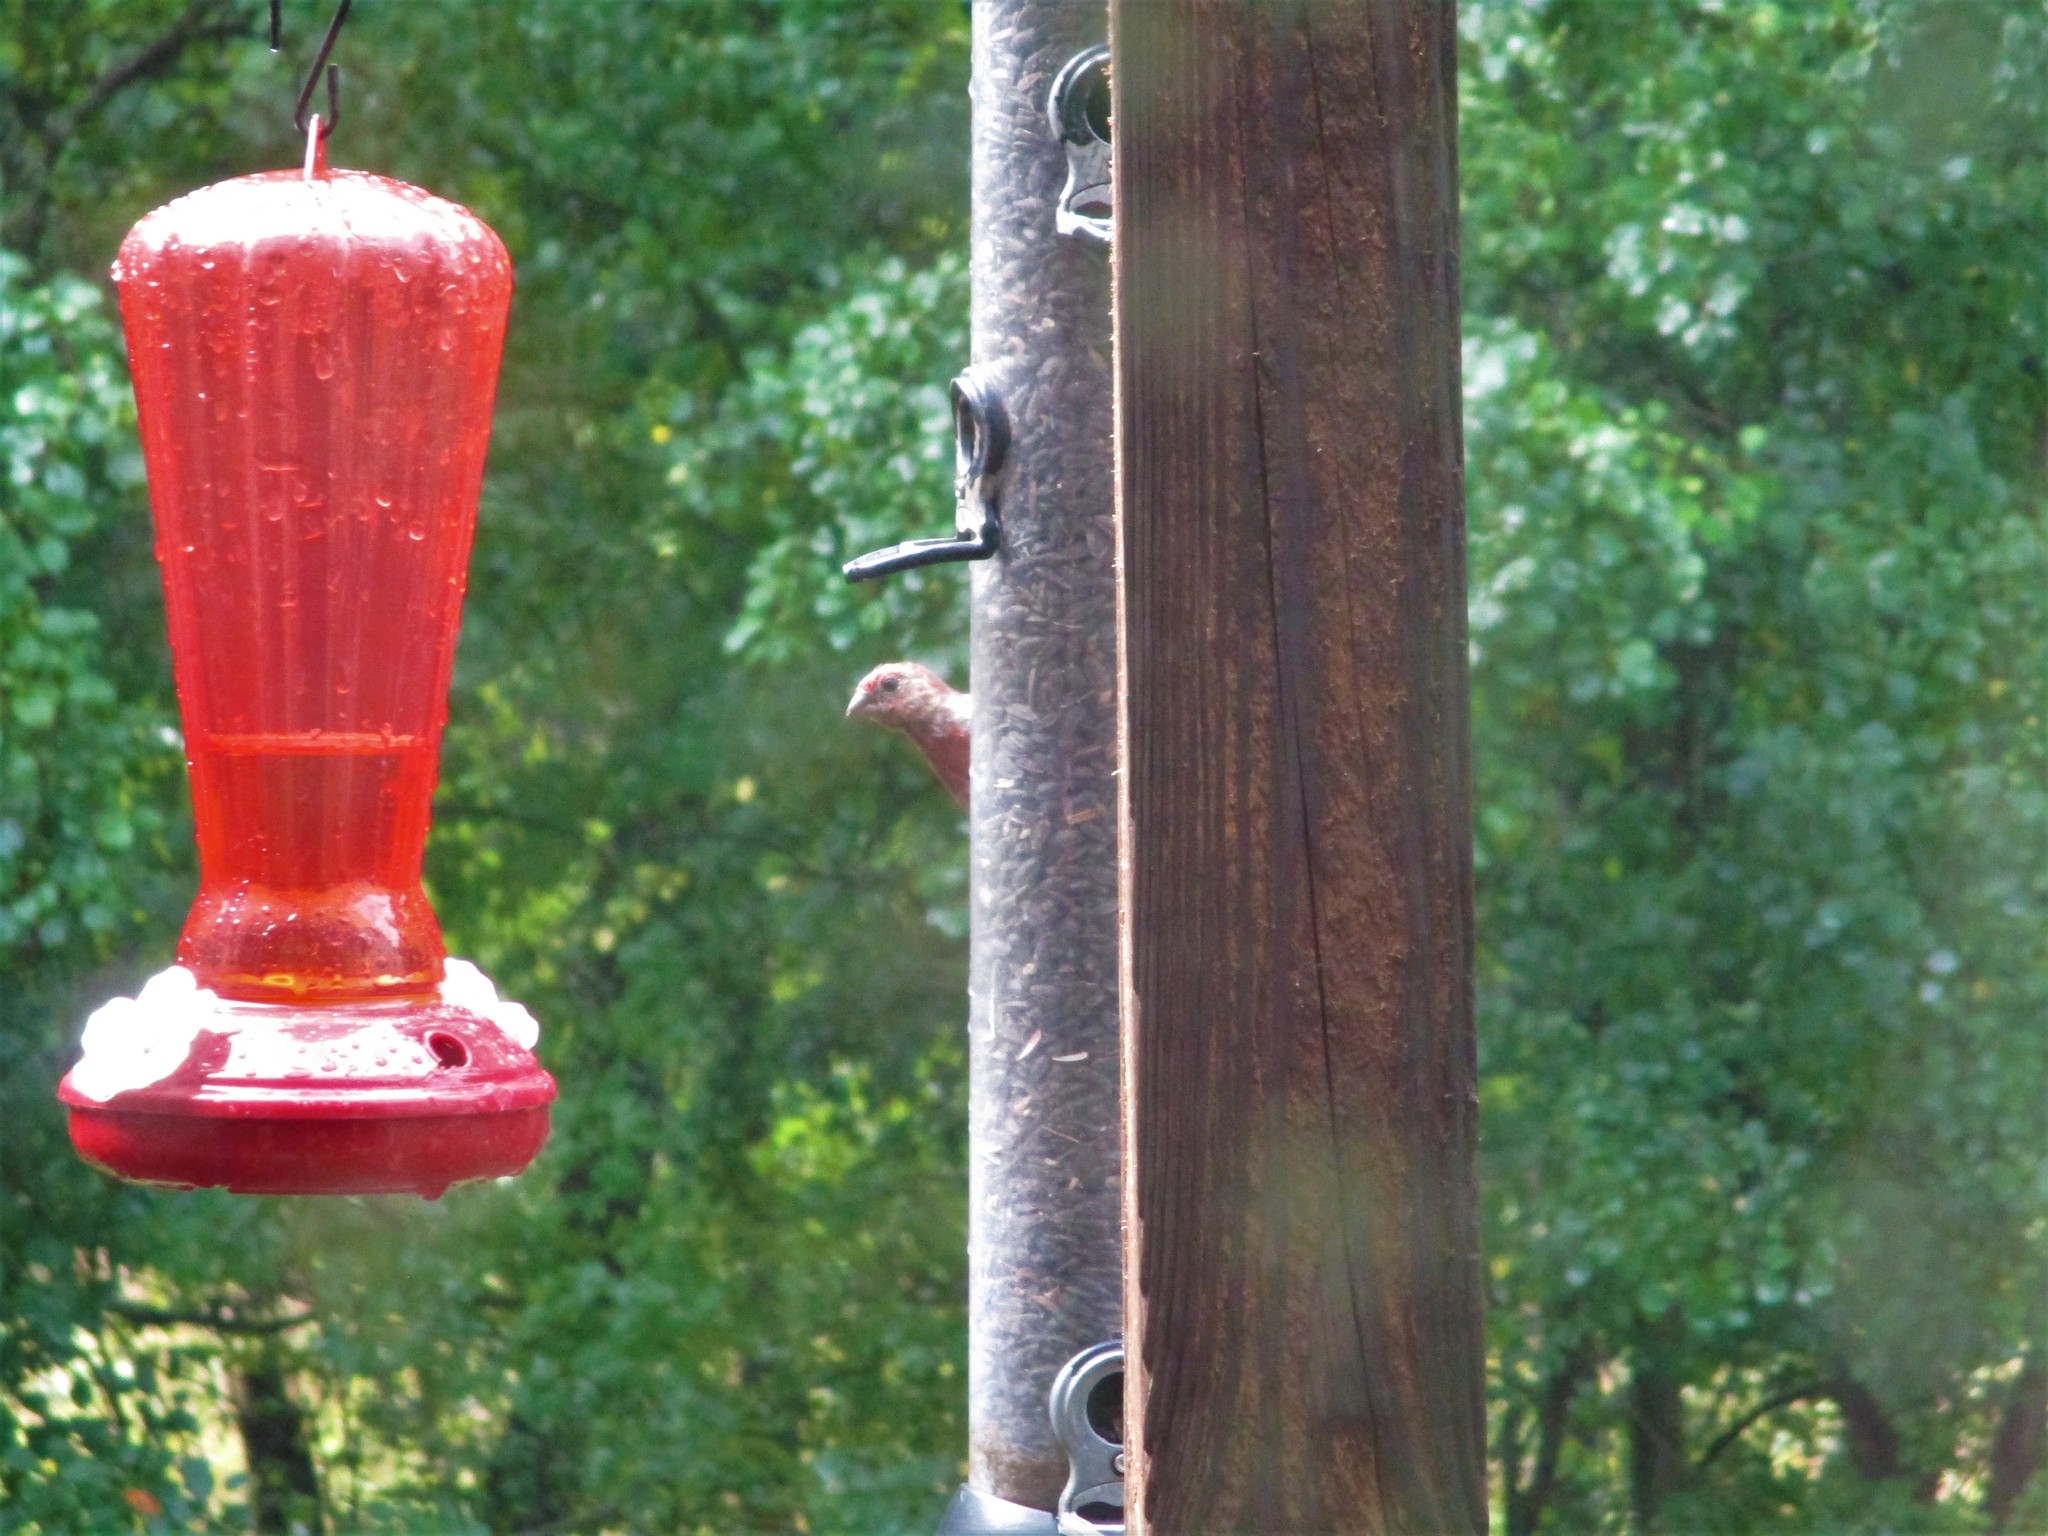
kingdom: Animalia
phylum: Chordata
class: Aves
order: Passeriformes
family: Fringillidae
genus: Haemorhous
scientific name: Haemorhous mexicanus
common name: House finch
